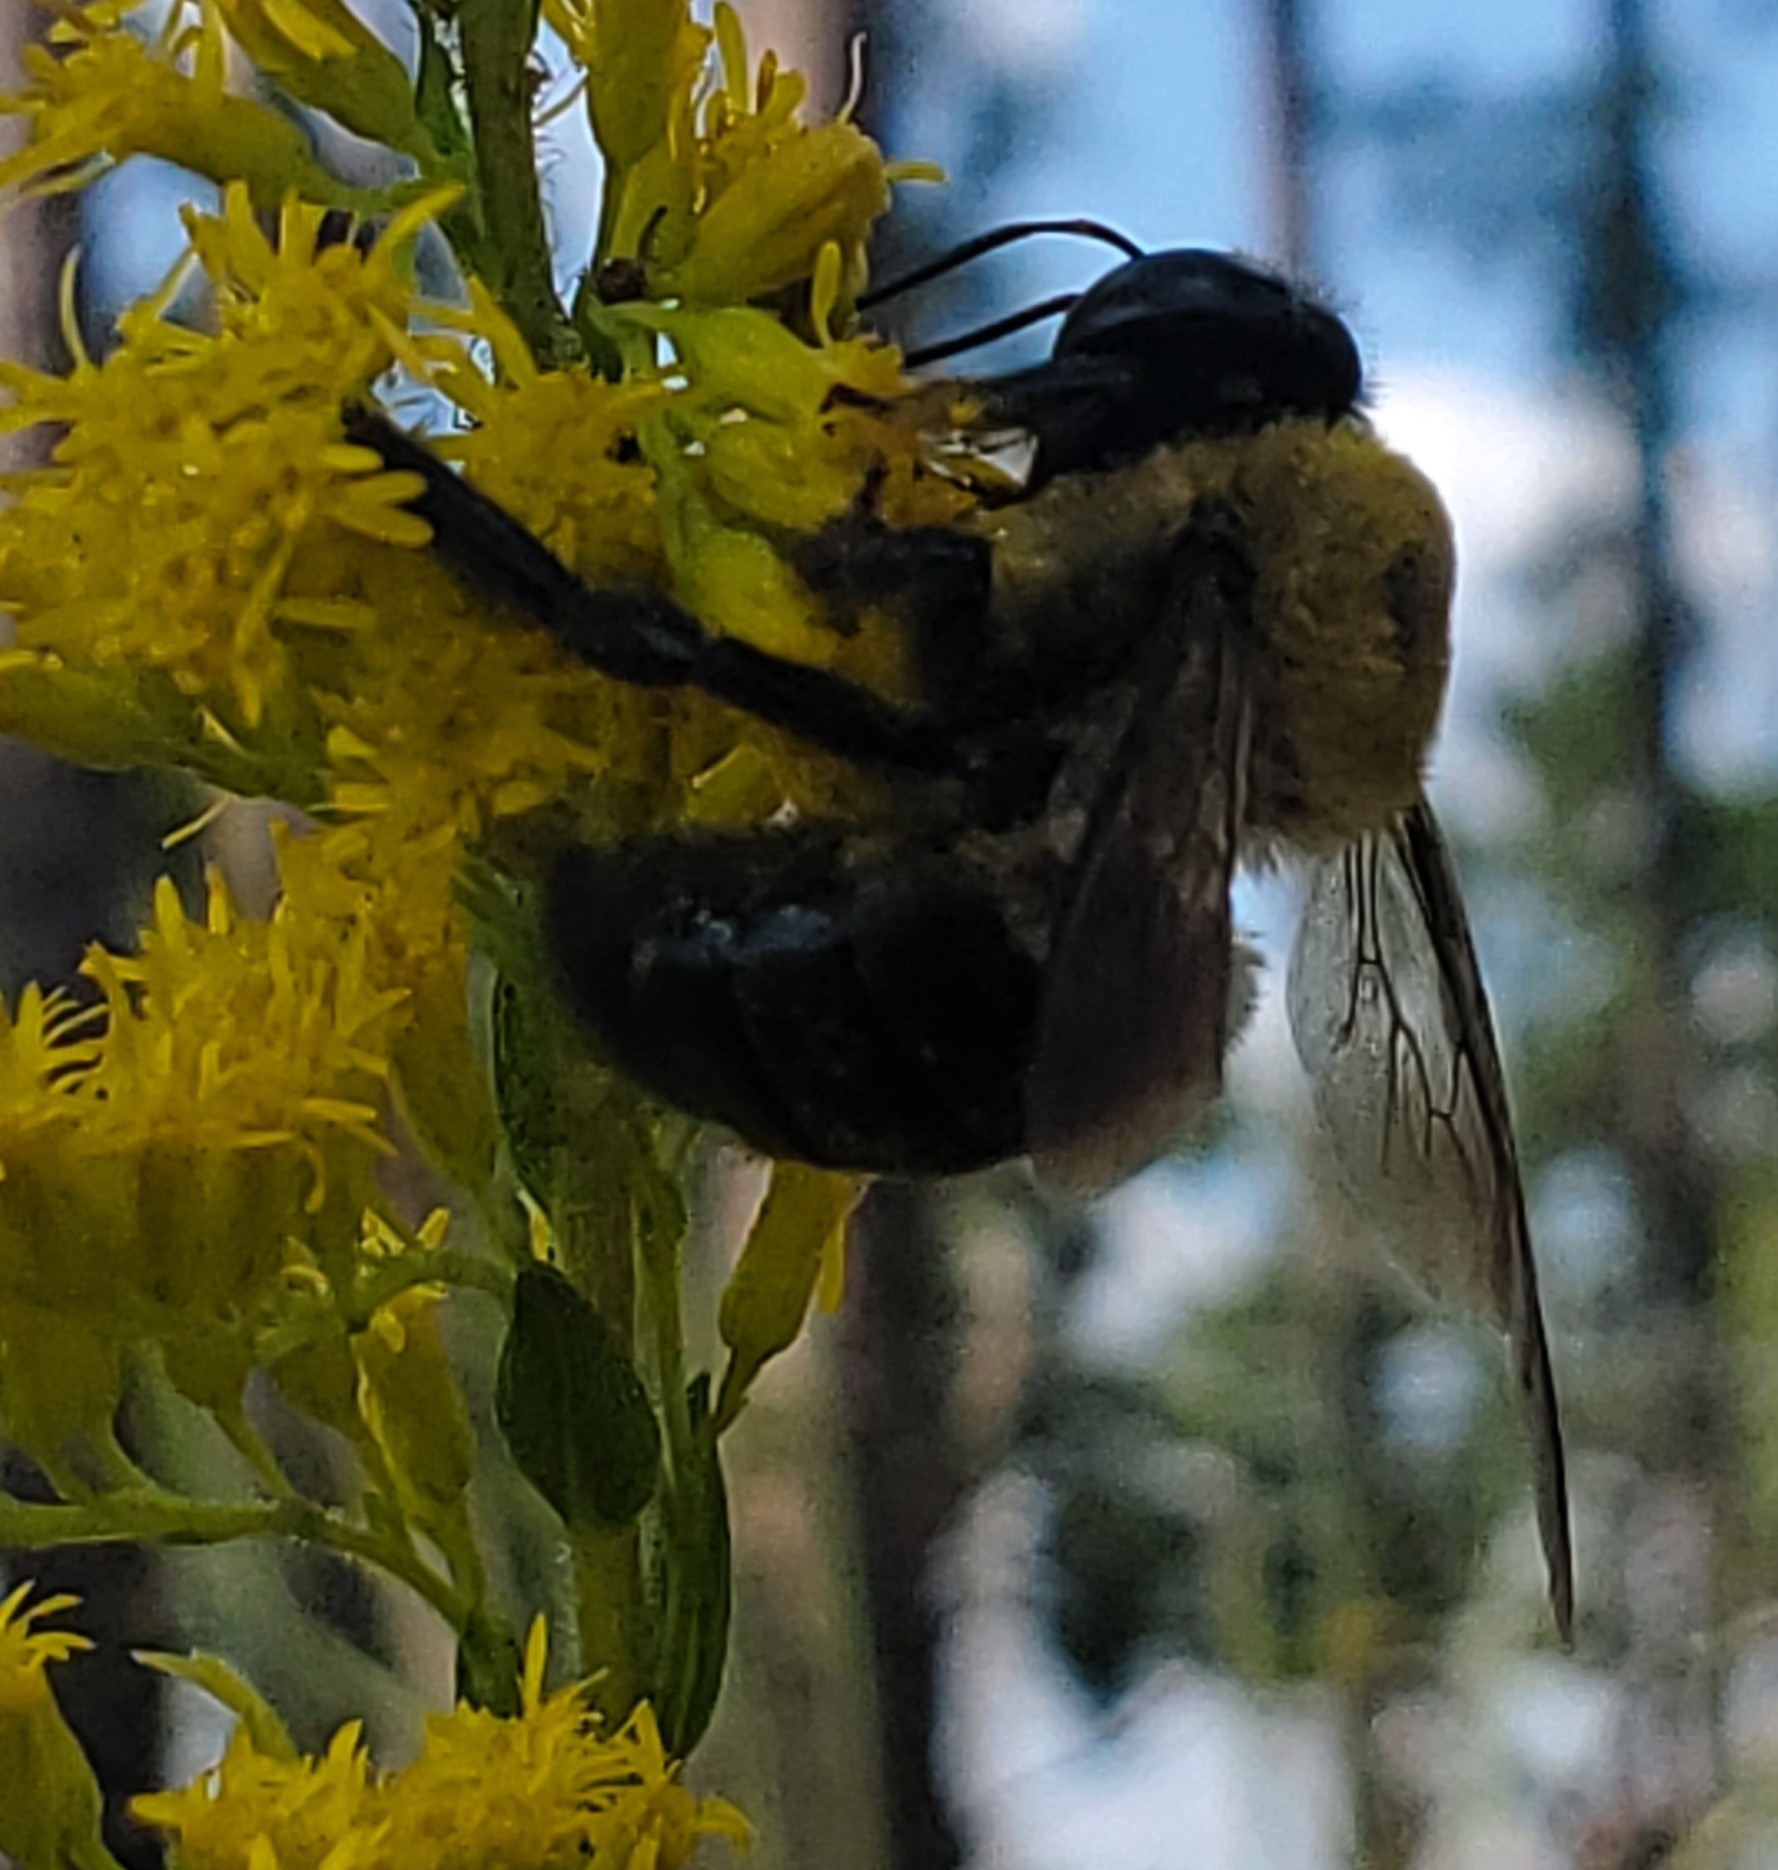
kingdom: Animalia
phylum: Arthropoda
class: Insecta
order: Hymenoptera
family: Apidae
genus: Xylocopa
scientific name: Xylocopa virginica
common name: Carpenter bee
